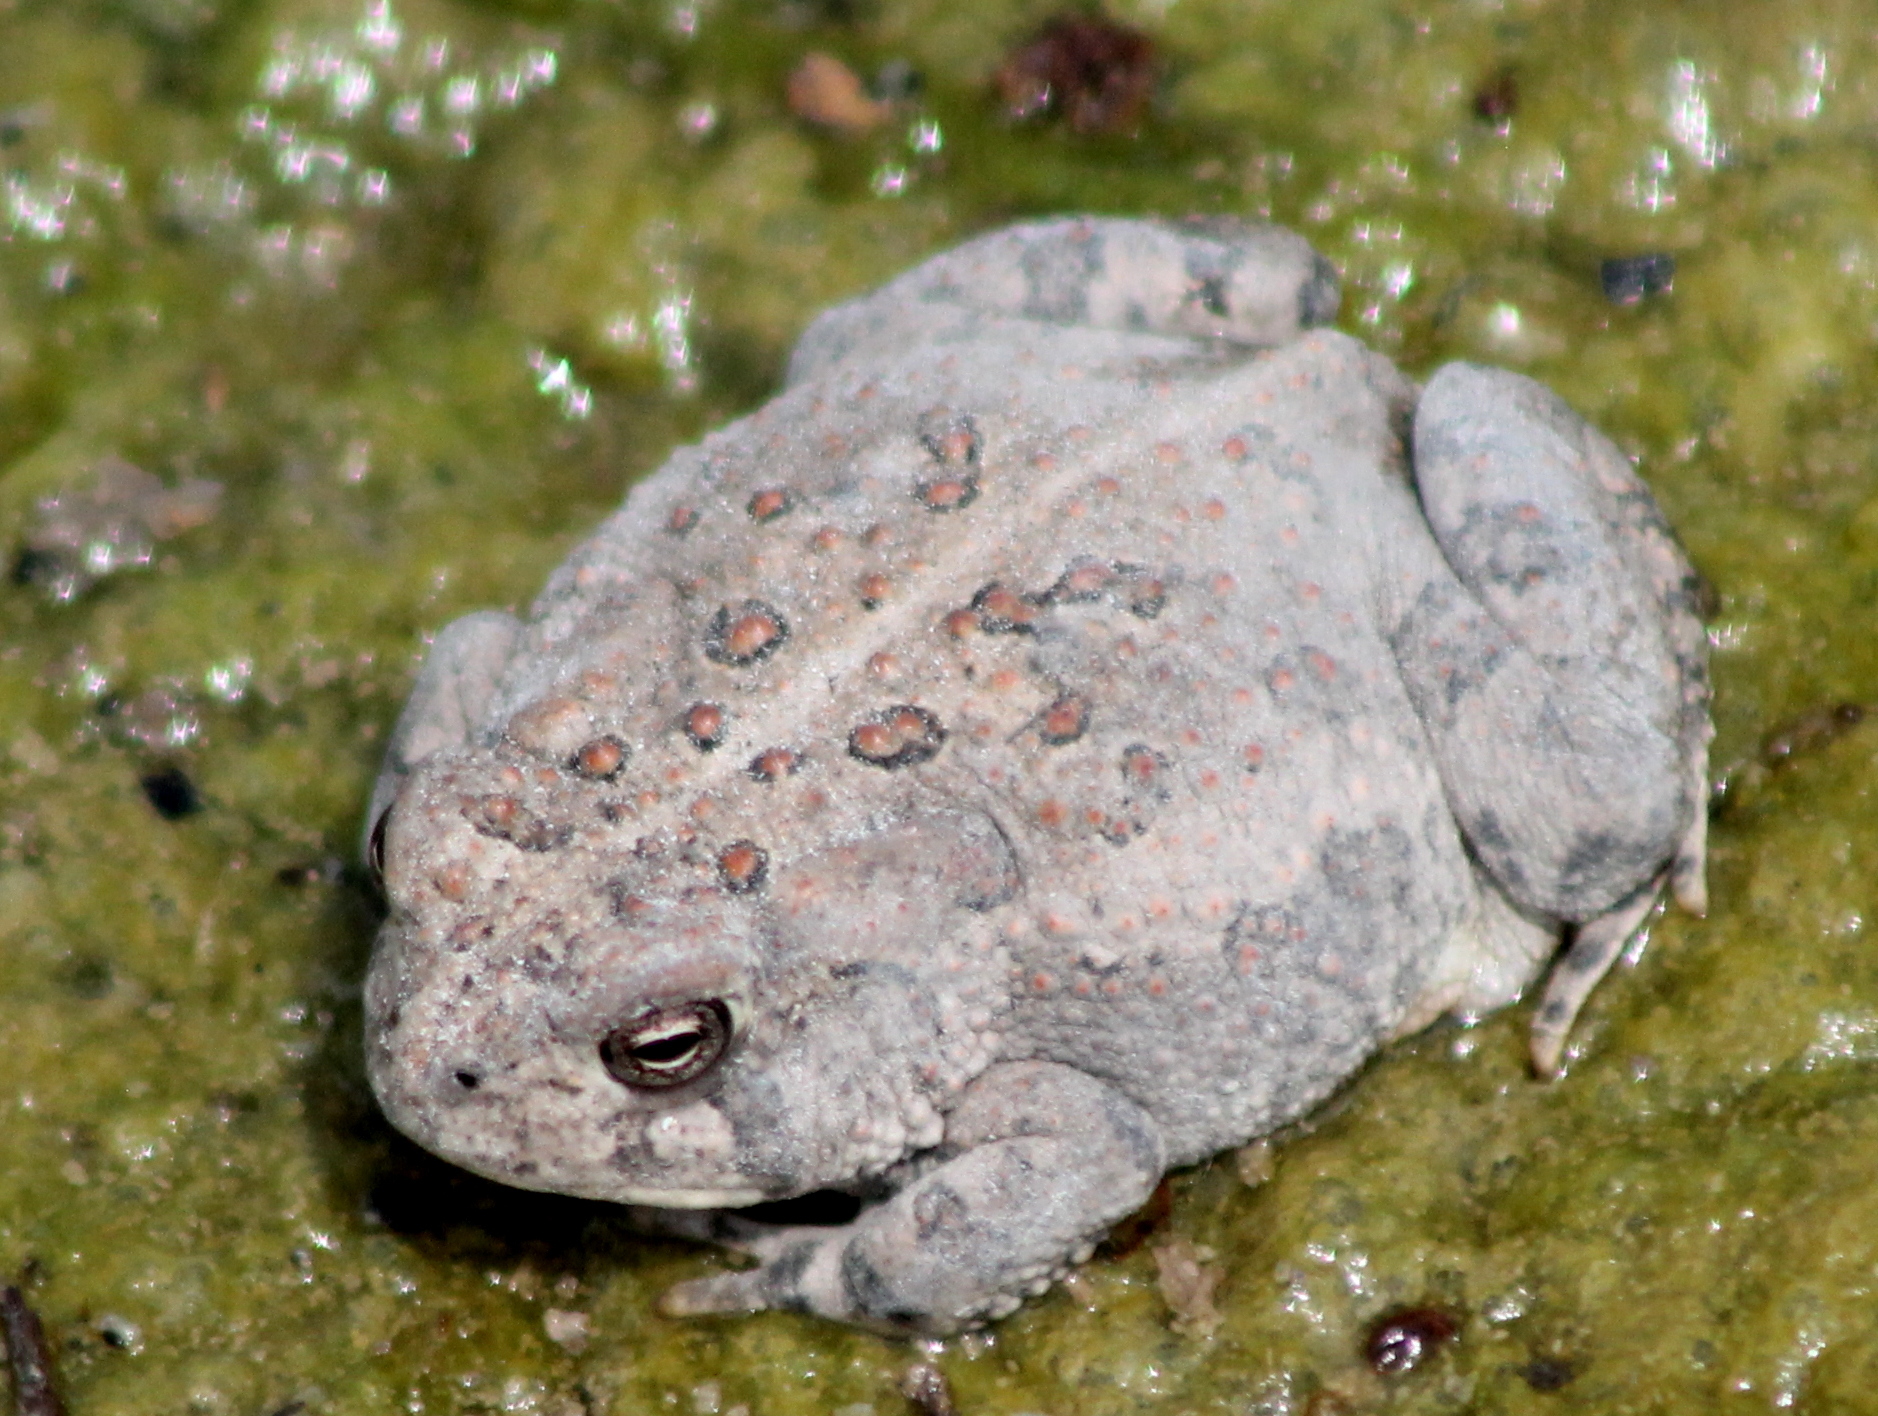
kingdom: Animalia
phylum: Chordata
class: Amphibia
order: Anura
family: Bufonidae
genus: Anaxyrus
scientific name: Anaxyrus woodhousii
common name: Woodhouse's toad
